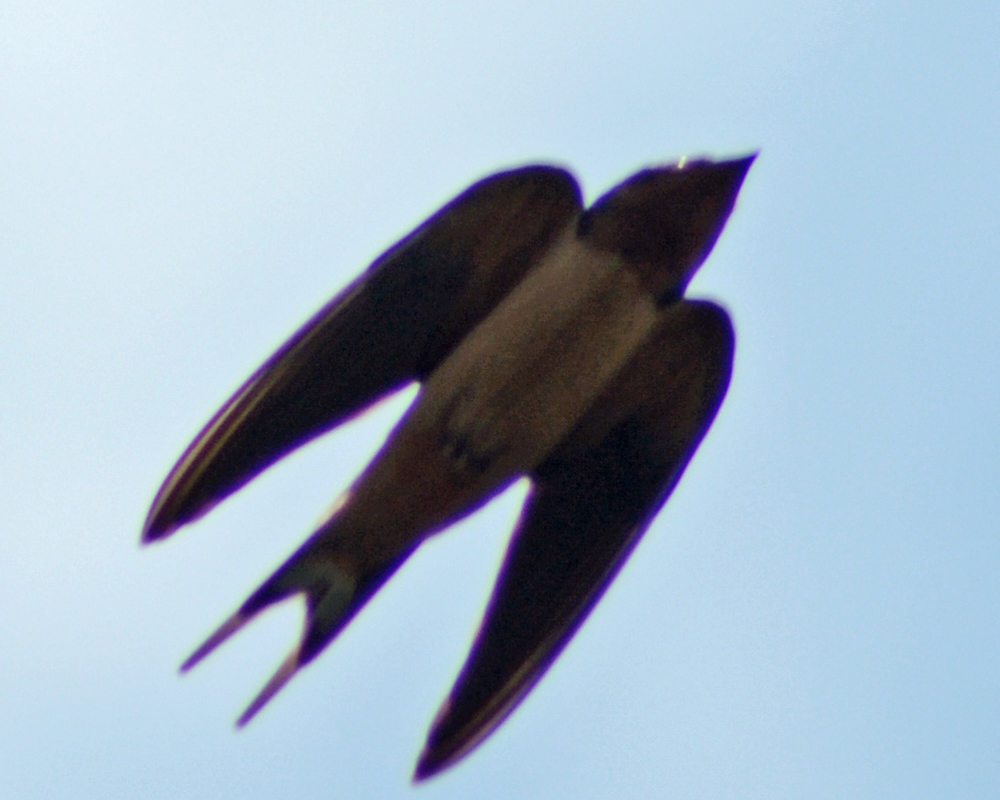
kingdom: Animalia
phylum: Chordata
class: Aves
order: Passeriformes
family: Hirundinidae
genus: Hirundo
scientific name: Hirundo rustica
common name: Barn swallow
